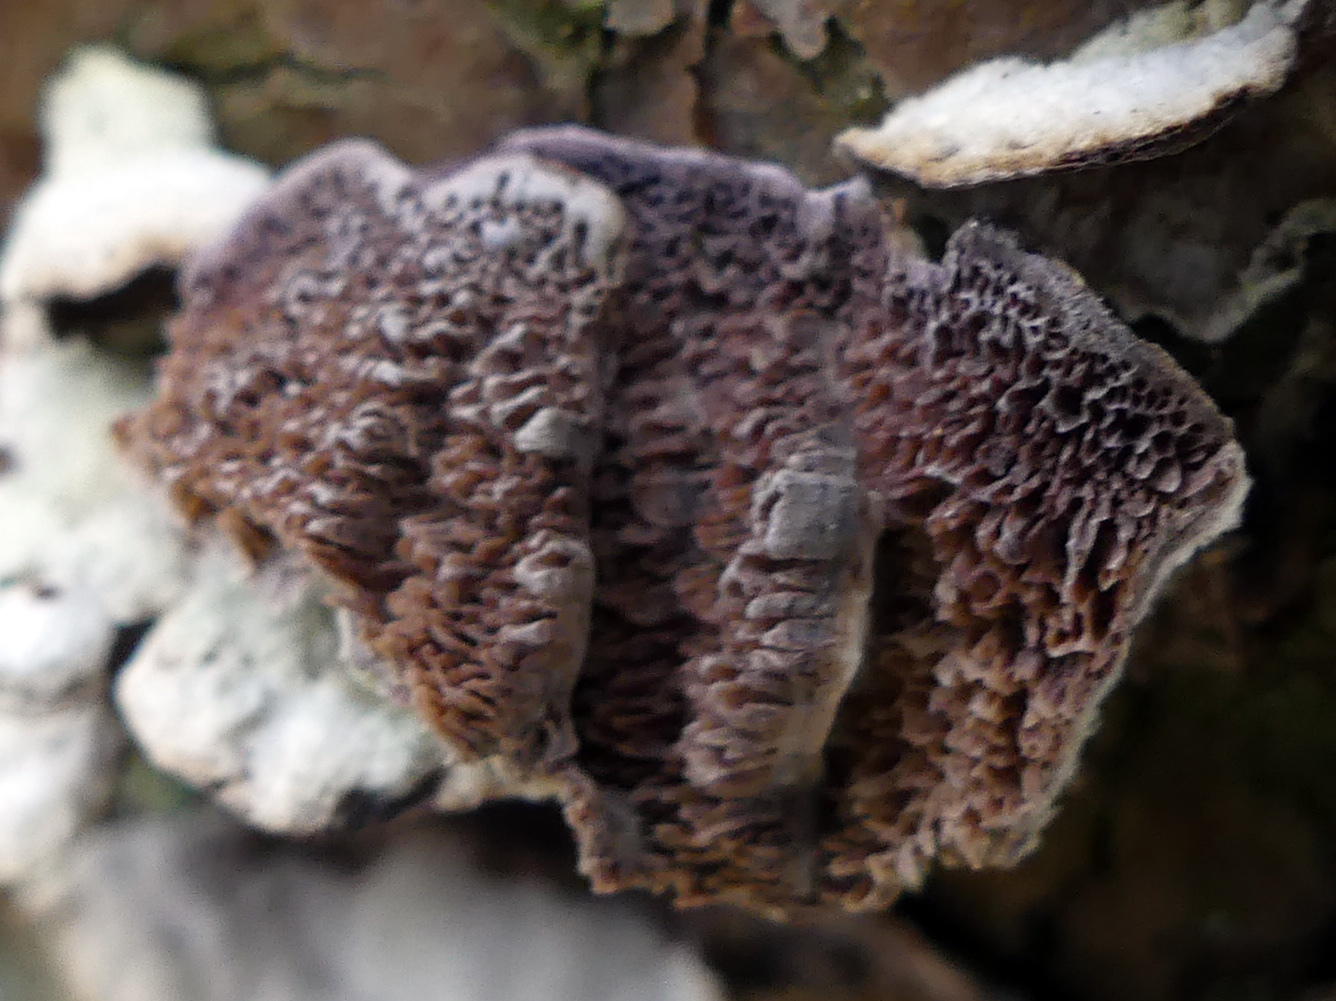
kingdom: Fungi
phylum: Basidiomycota
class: Agaricomycetes
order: Hymenochaetales
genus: Trichaptum
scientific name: Trichaptum fuscoviolaceum
